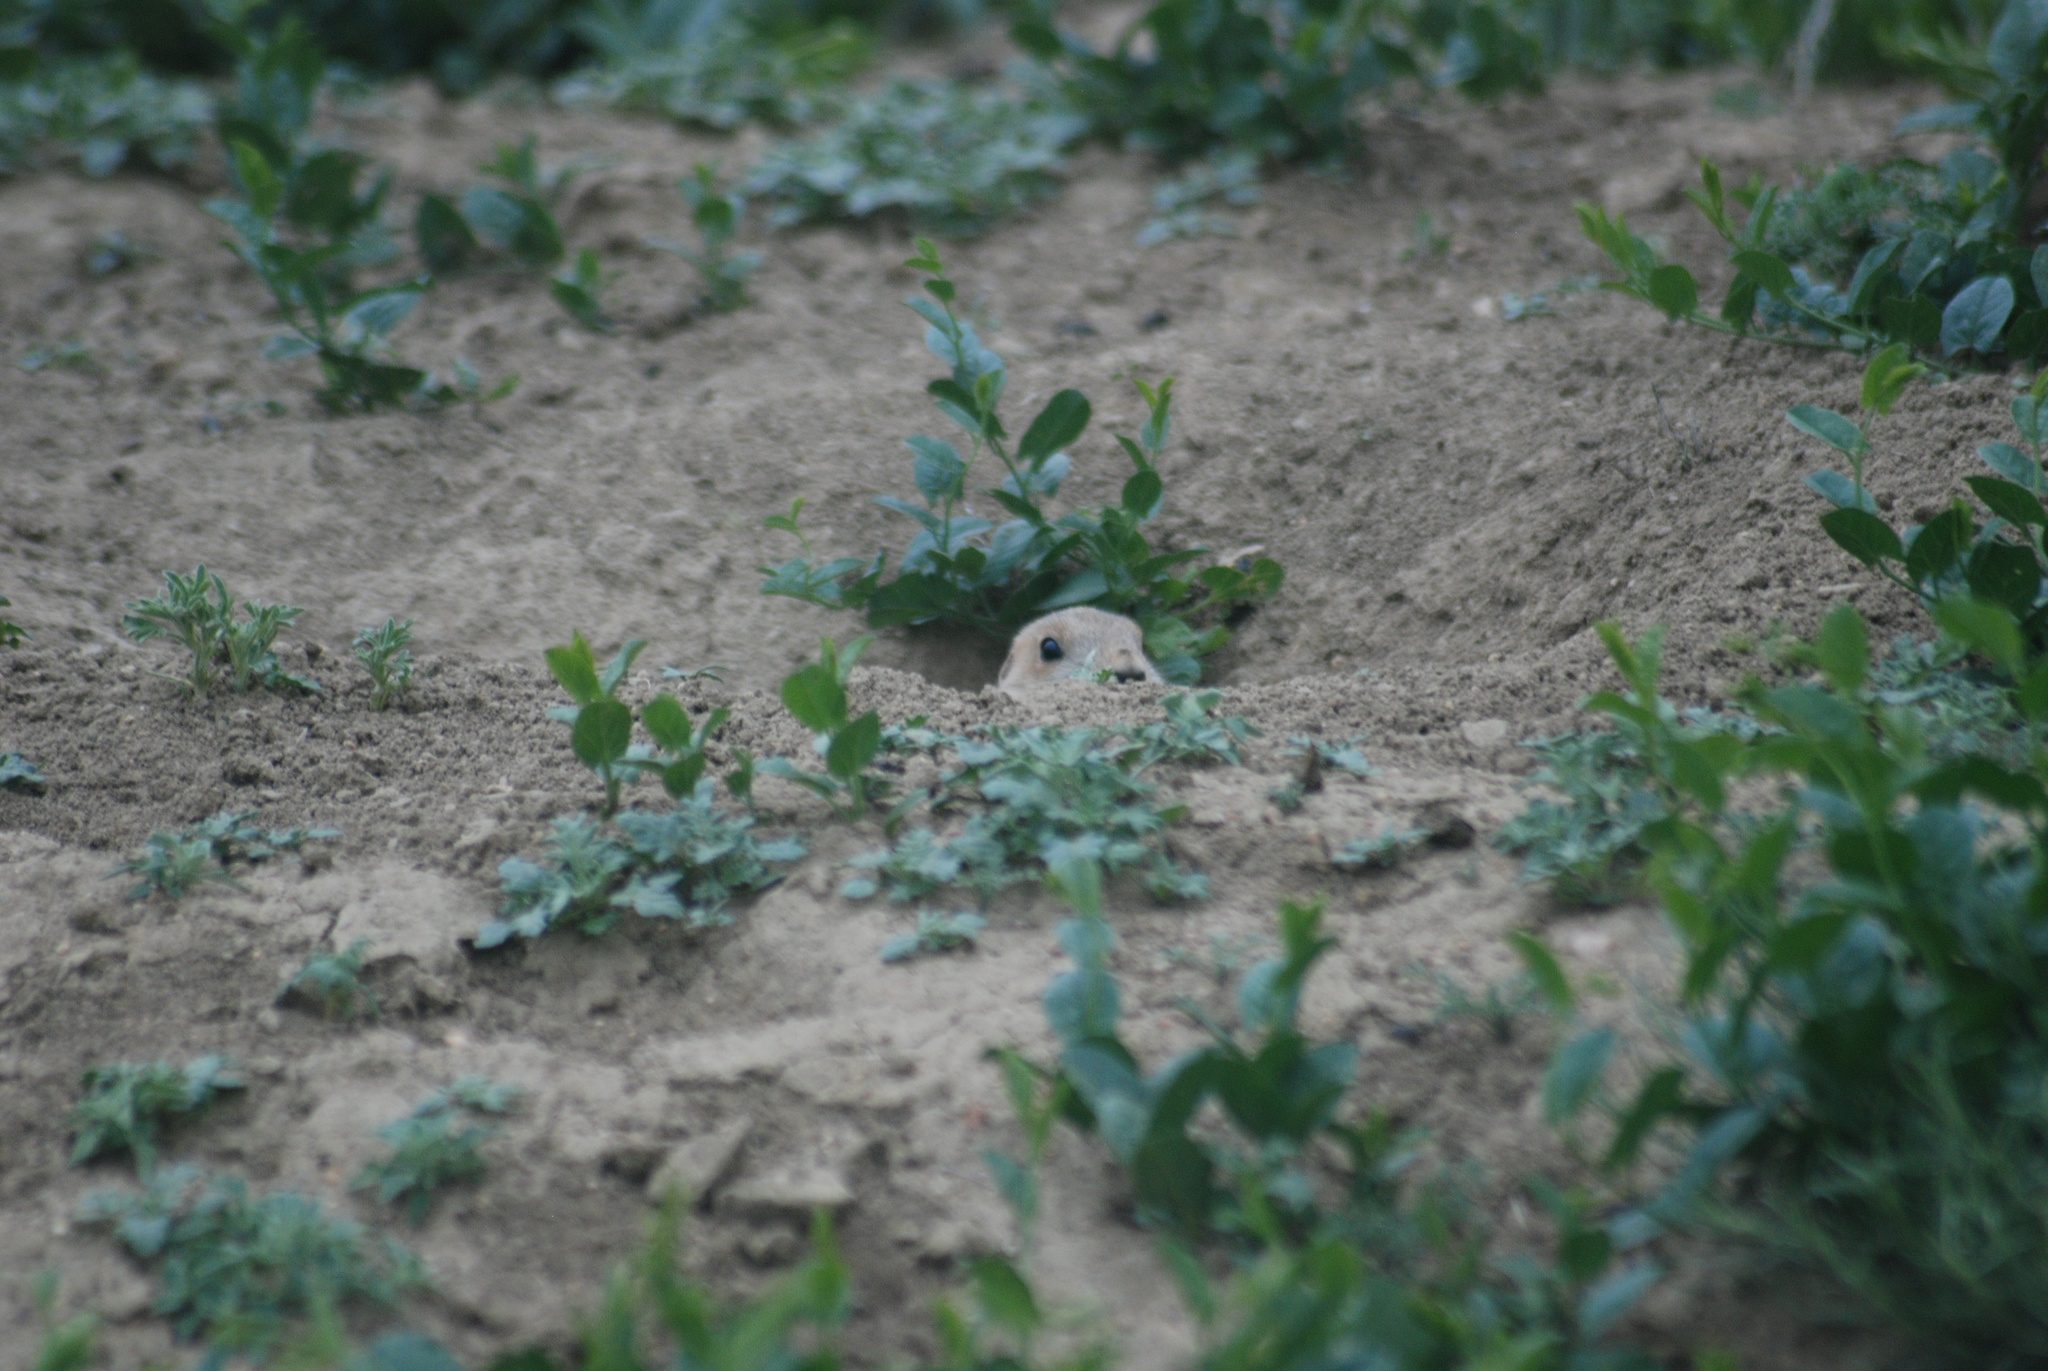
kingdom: Animalia
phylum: Chordata
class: Mammalia
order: Rodentia
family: Sciuridae
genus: Cynomys
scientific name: Cynomys ludovicianus
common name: Black-tailed prairie dog
